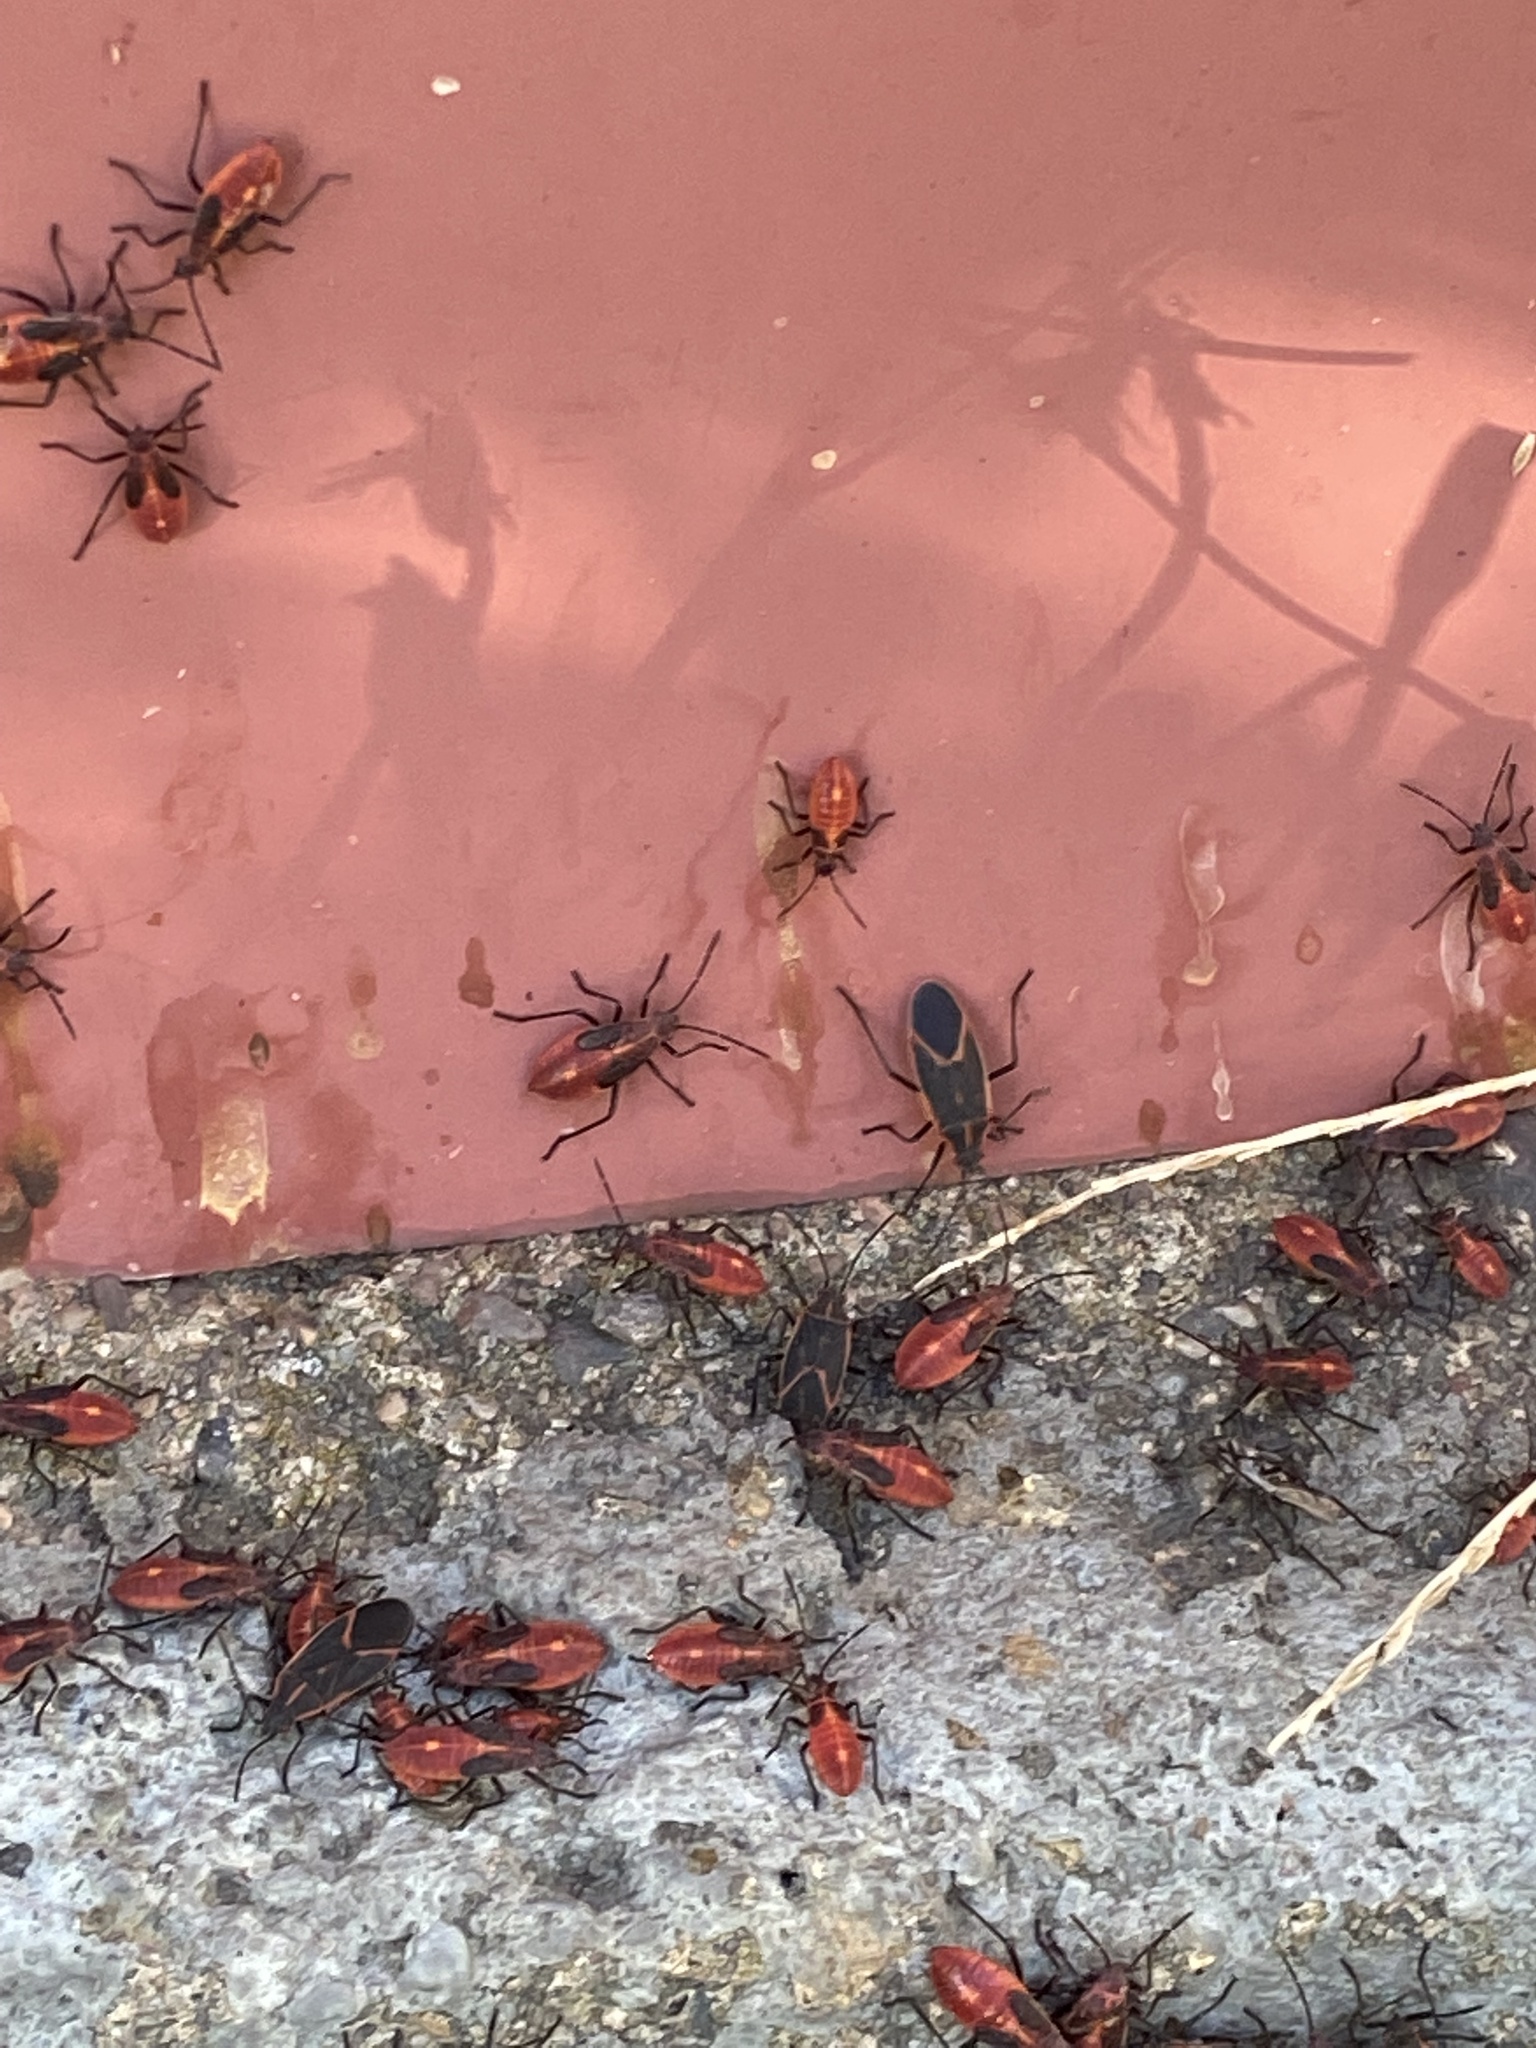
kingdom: Animalia
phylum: Arthropoda
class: Insecta
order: Hemiptera
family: Rhopalidae
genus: Boisea
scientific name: Boisea trivittata
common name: Boxelder bug
